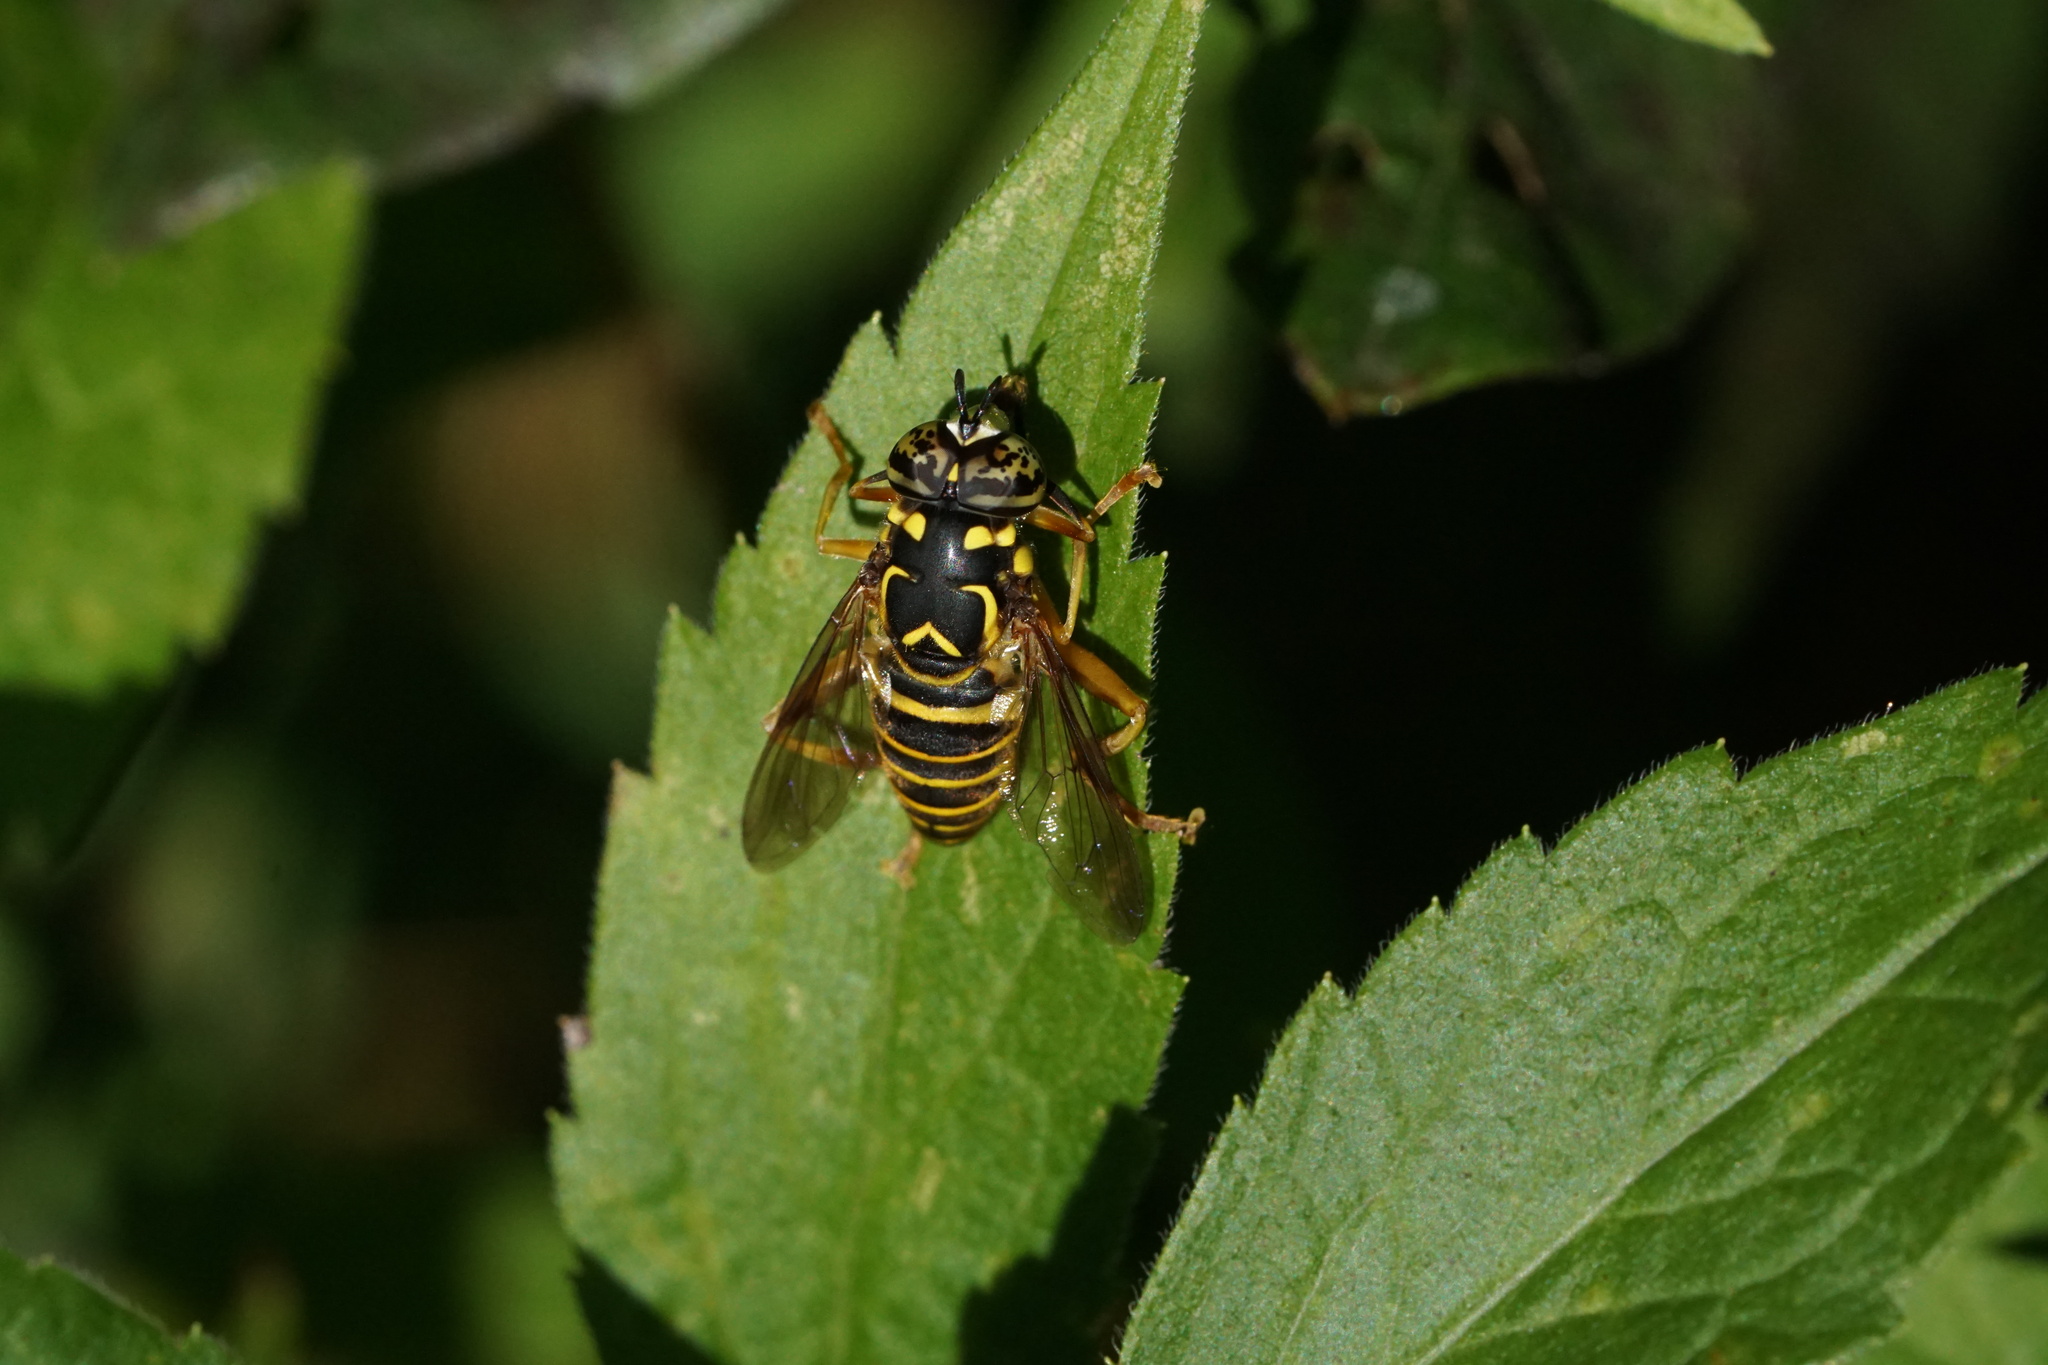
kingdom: Animalia
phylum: Arthropoda
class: Insecta
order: Diptera
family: Syrphidae
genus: Spilomyia
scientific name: Spilomyia longicornis
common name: Eastern hornet fly
